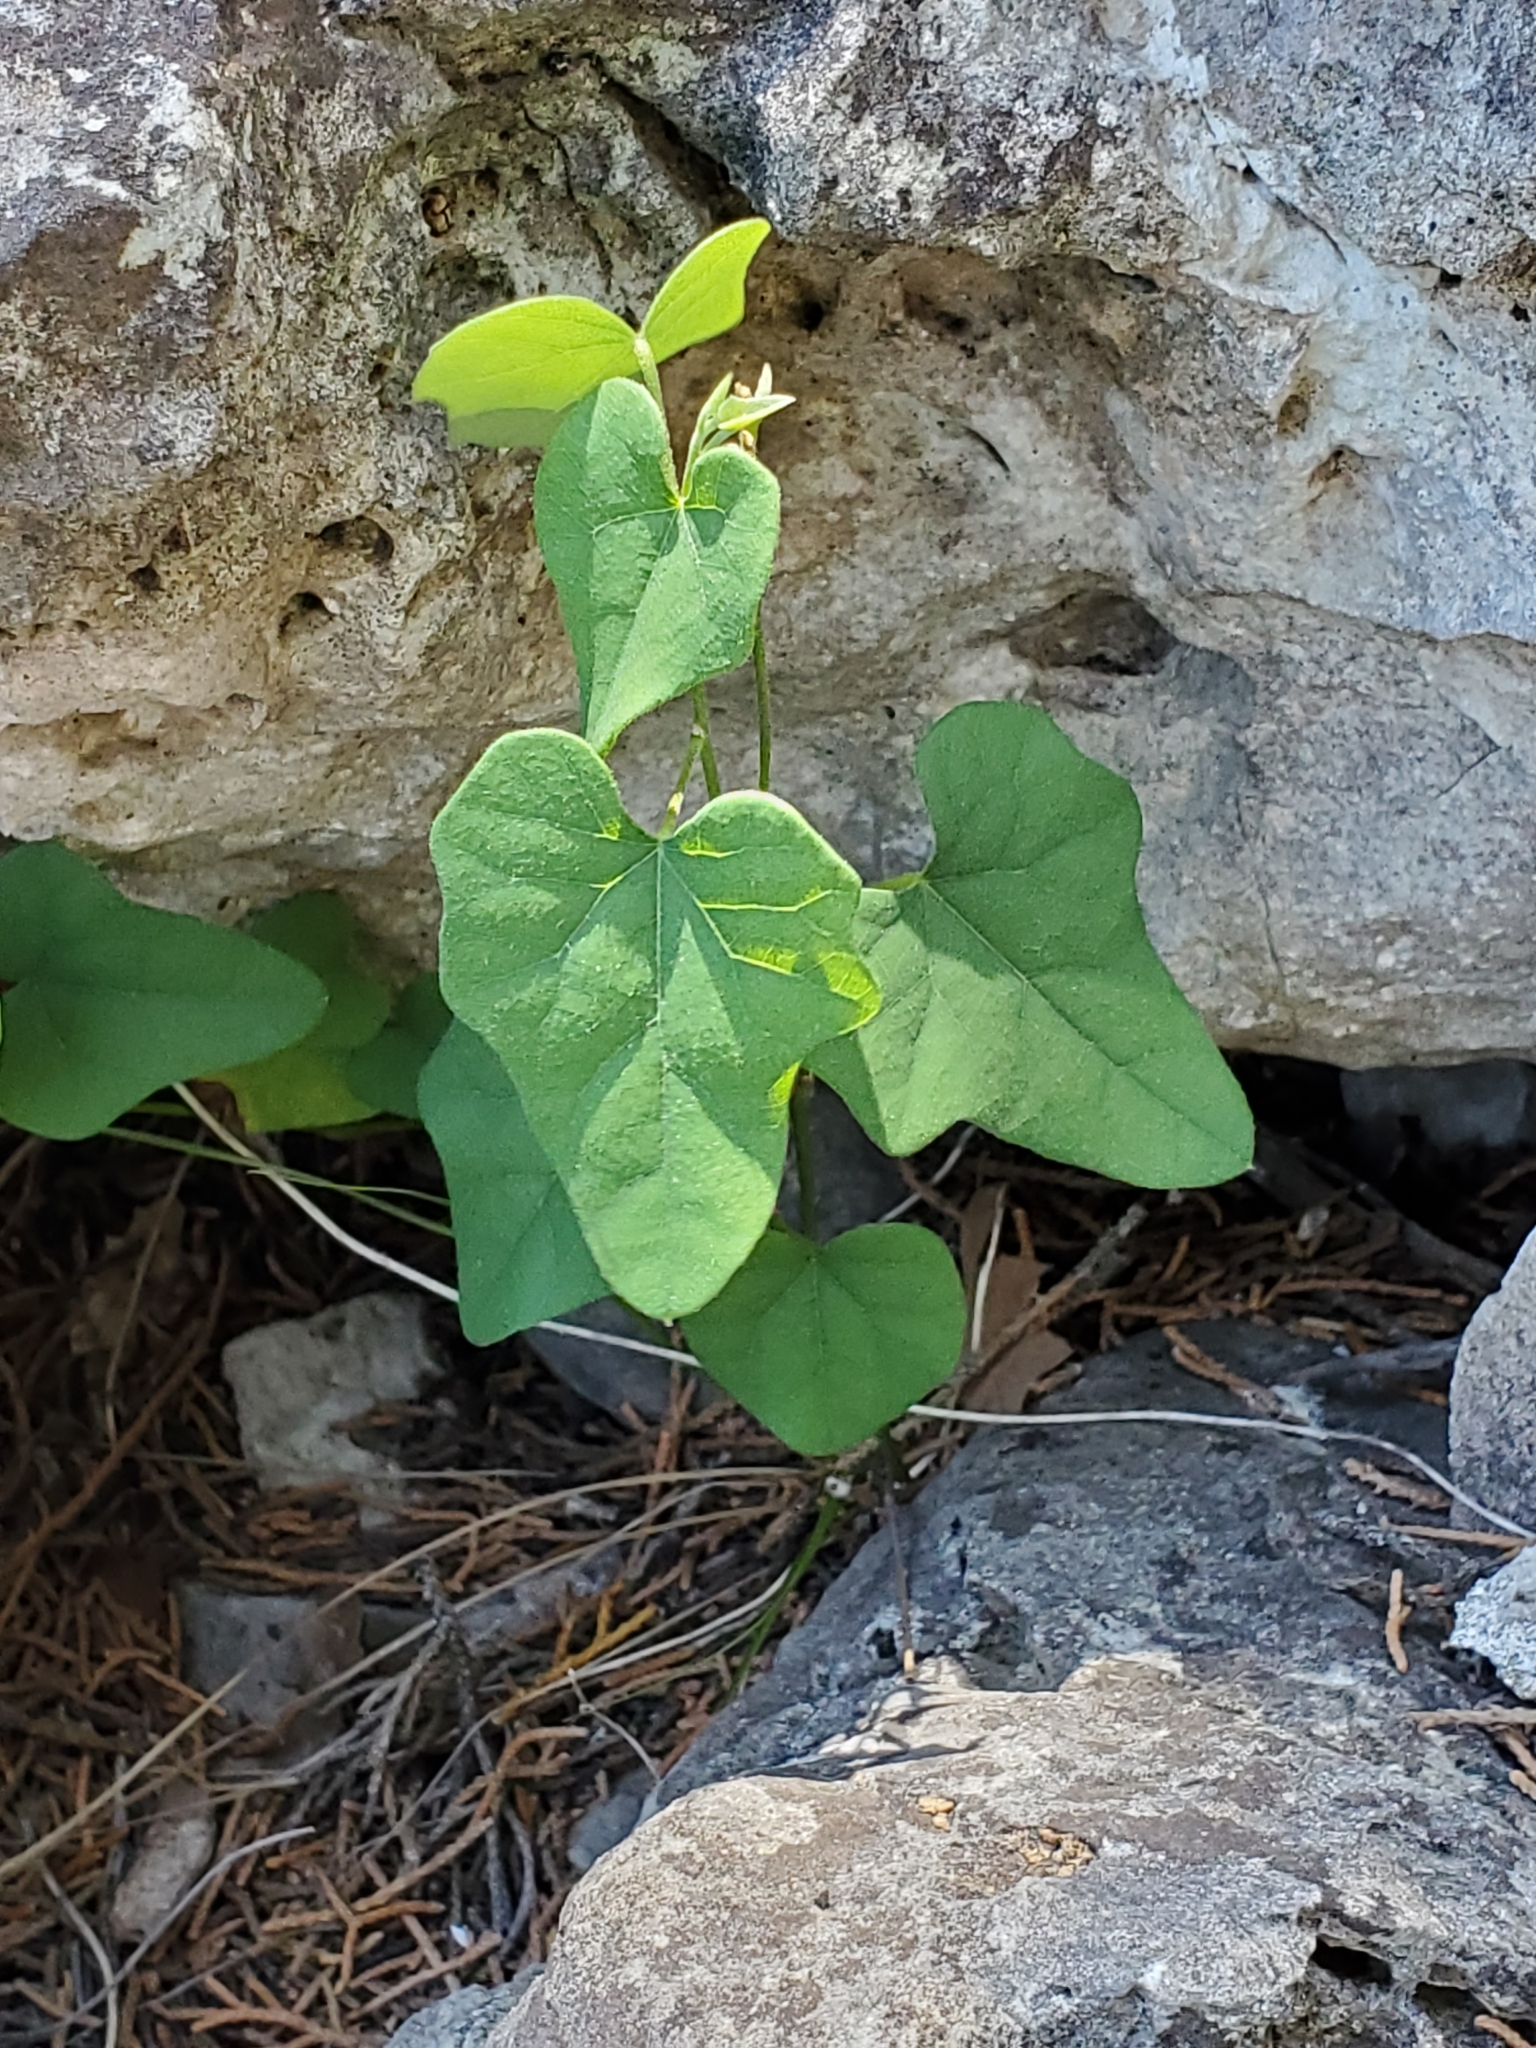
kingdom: Plantae
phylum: Tracheophyta
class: Magnoliopsida
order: Ranunculales
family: Menispermaceae
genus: Cocculus
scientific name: Cocculus carolinus
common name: Carolina moonseed
